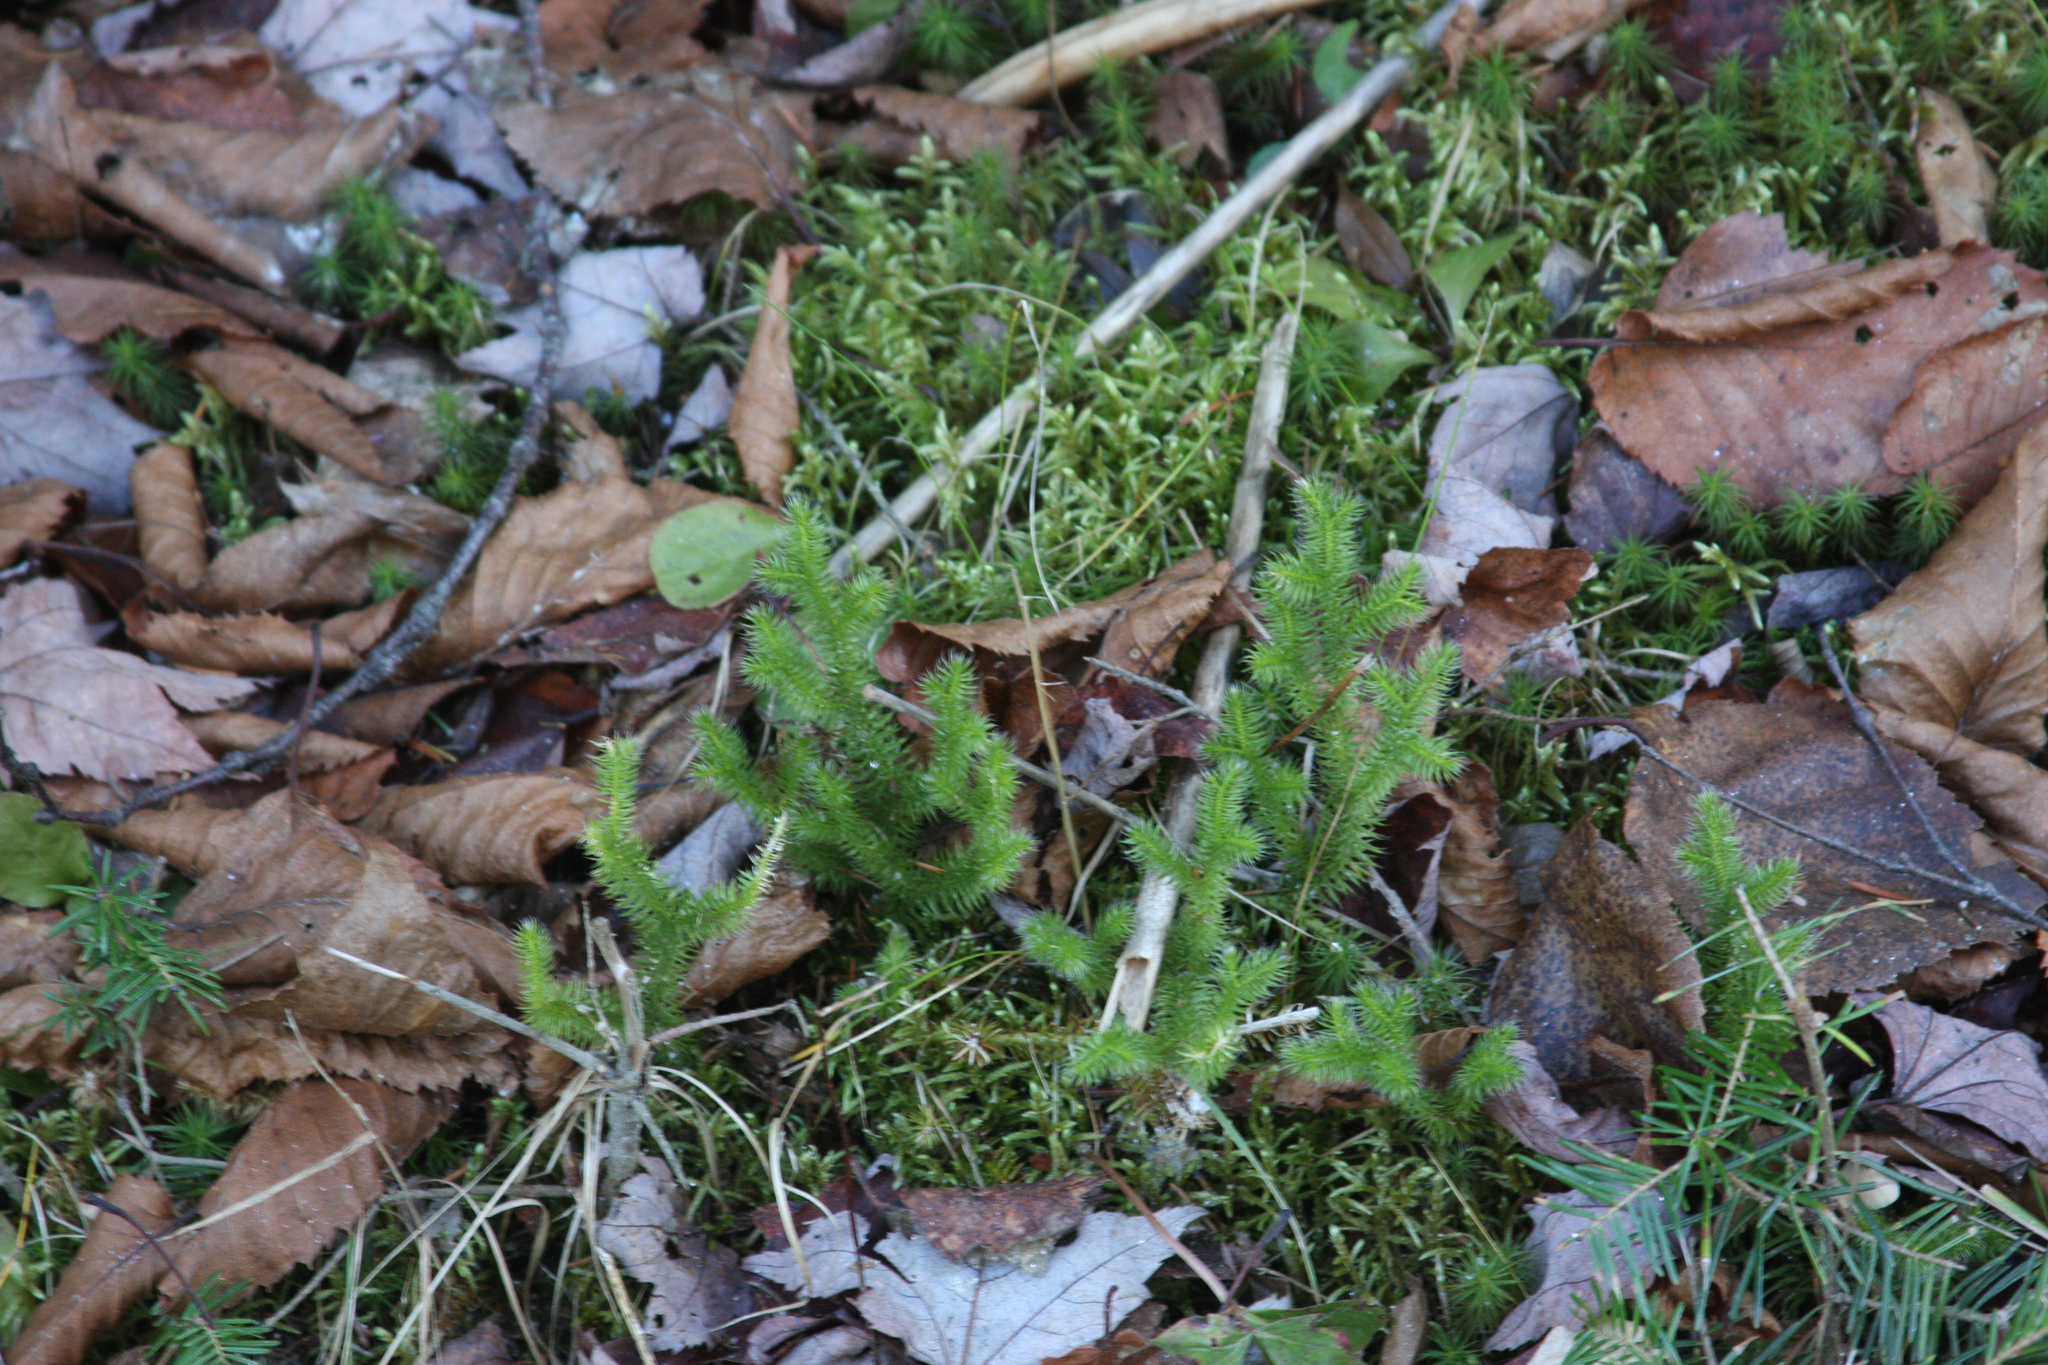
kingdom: Plantae
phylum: Tracheophyta
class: Lycopodiopsida
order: Lycopodiales
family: Lycopodiaceae
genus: Lycopodium
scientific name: Lycopodium clavatum
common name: Stag's-horn clubmoss
